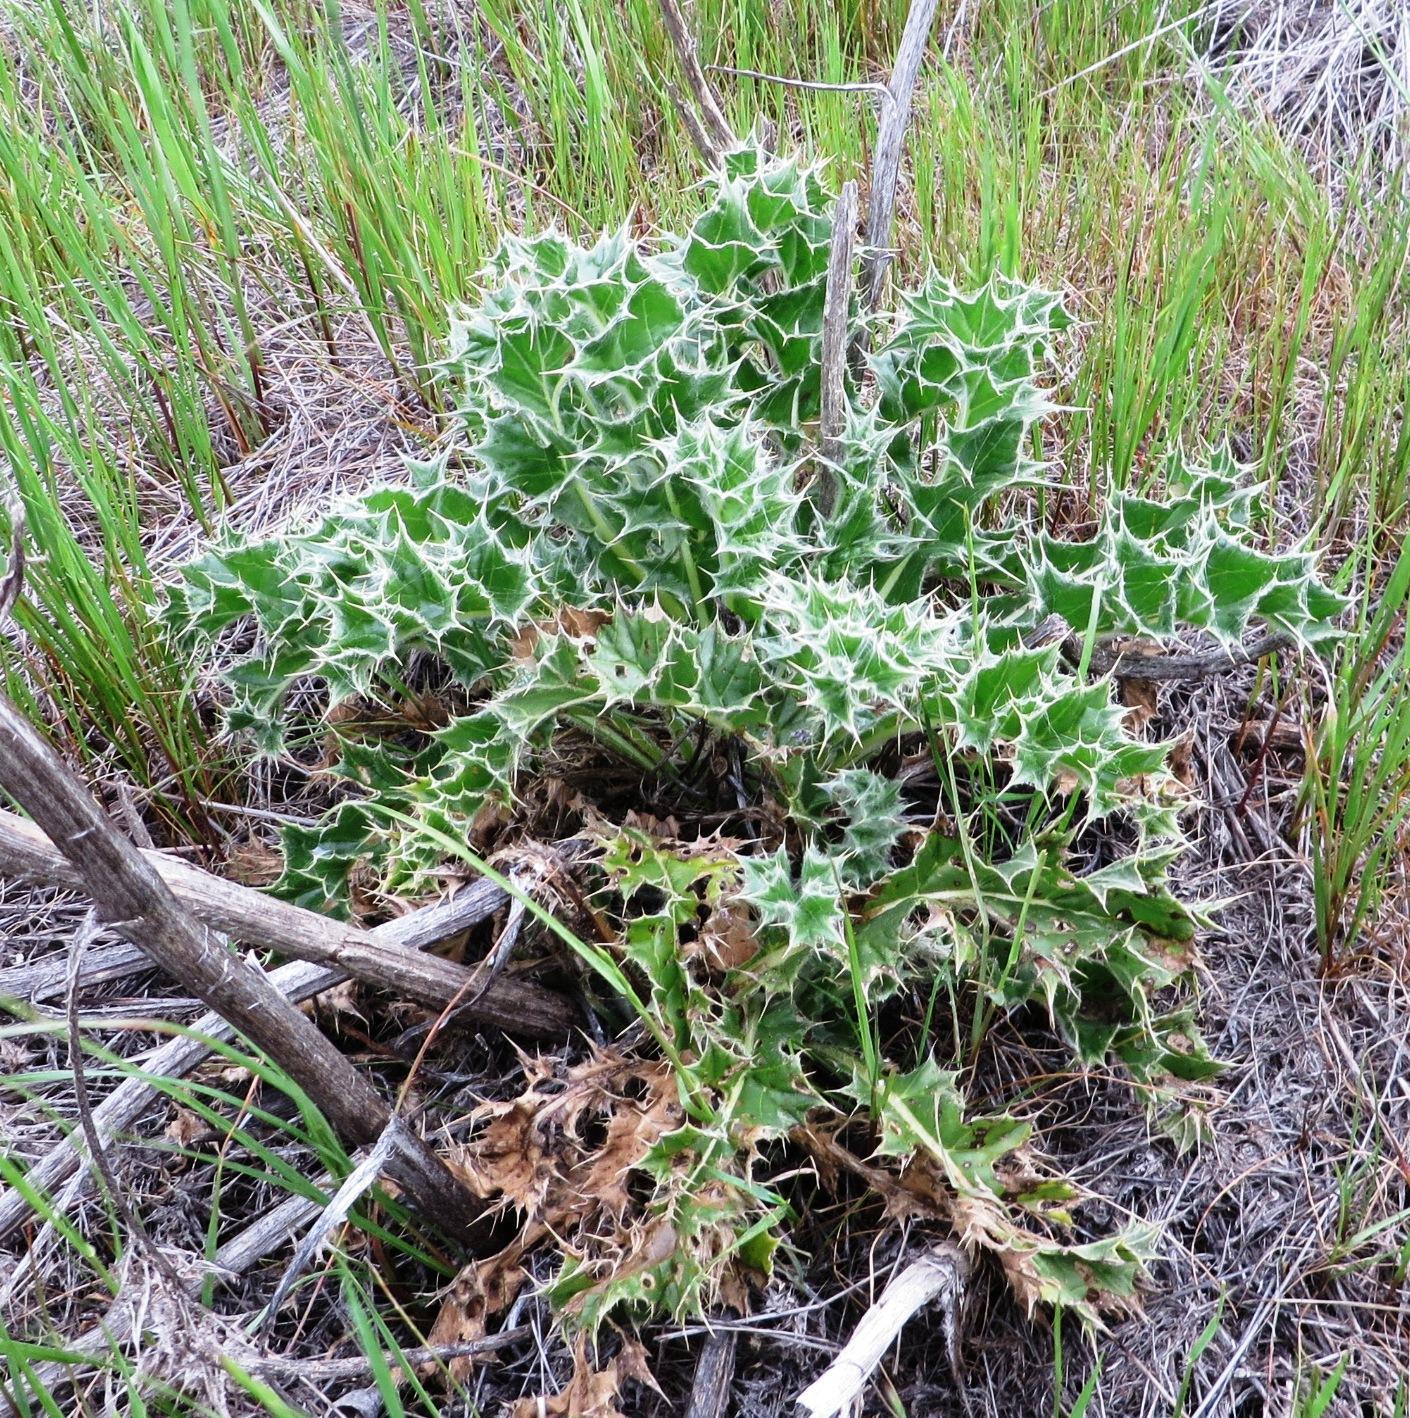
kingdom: Plantae
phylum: Tracheophyta
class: Magnoliopsida
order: Asterales
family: Asteraceae
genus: Berkheya
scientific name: Berkheya glabrata
